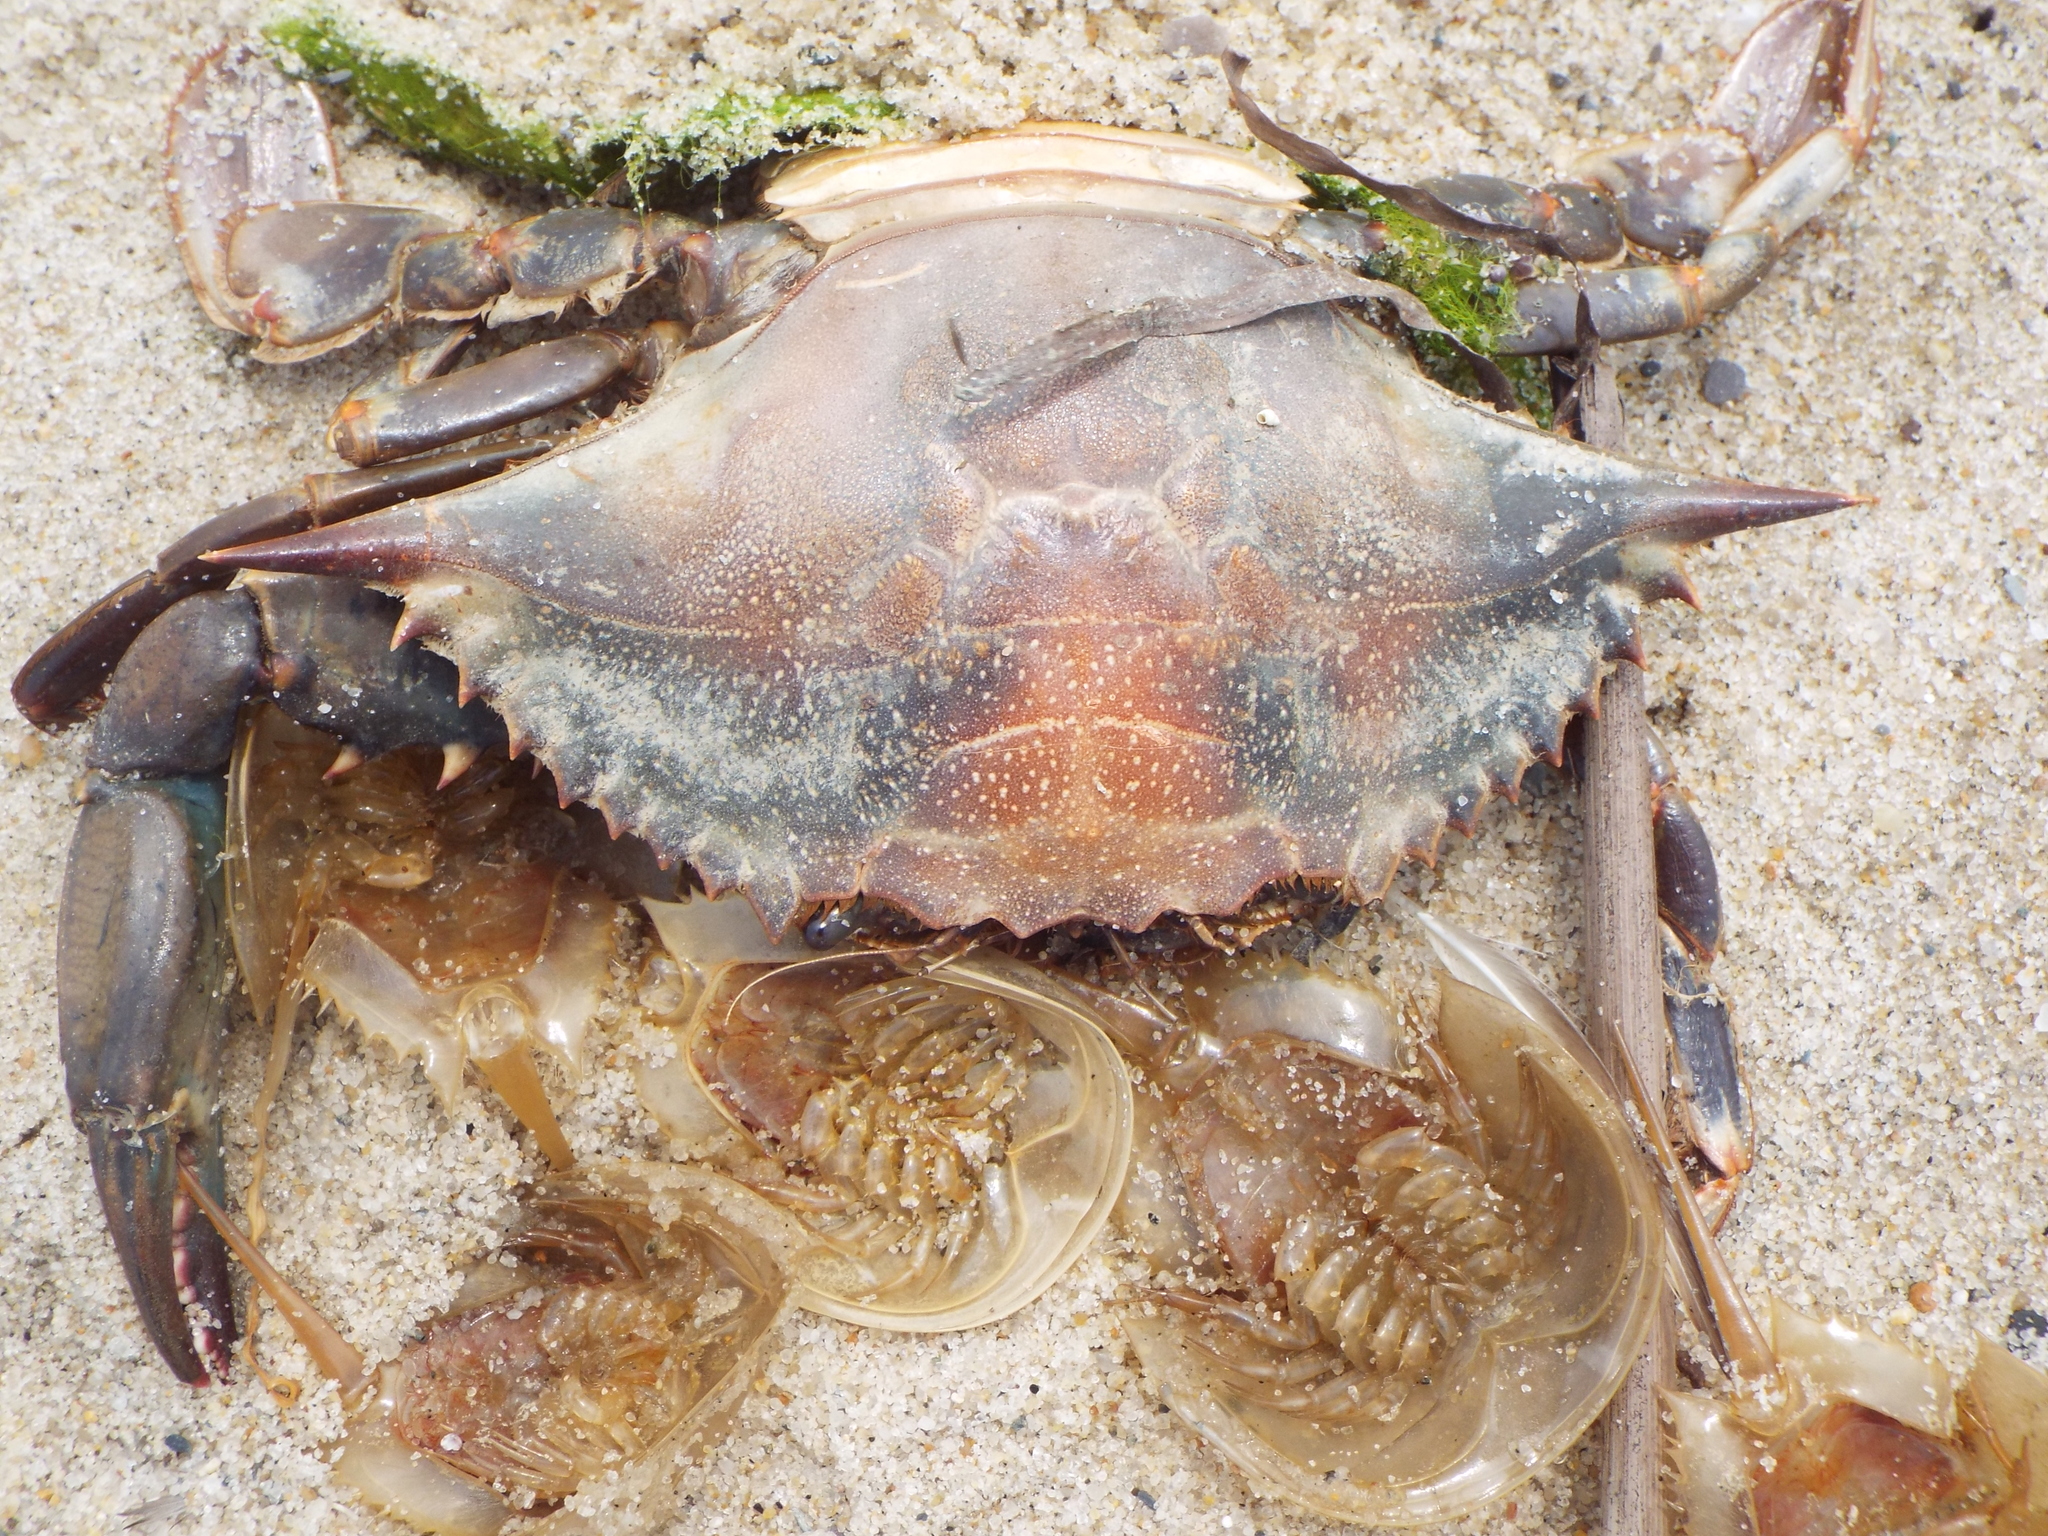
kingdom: Animalia
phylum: Arthropoda
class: Malacostraca
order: Decapoda
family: Portunidae
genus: Callinectes
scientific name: Callinectes sapidus
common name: Blue crab
